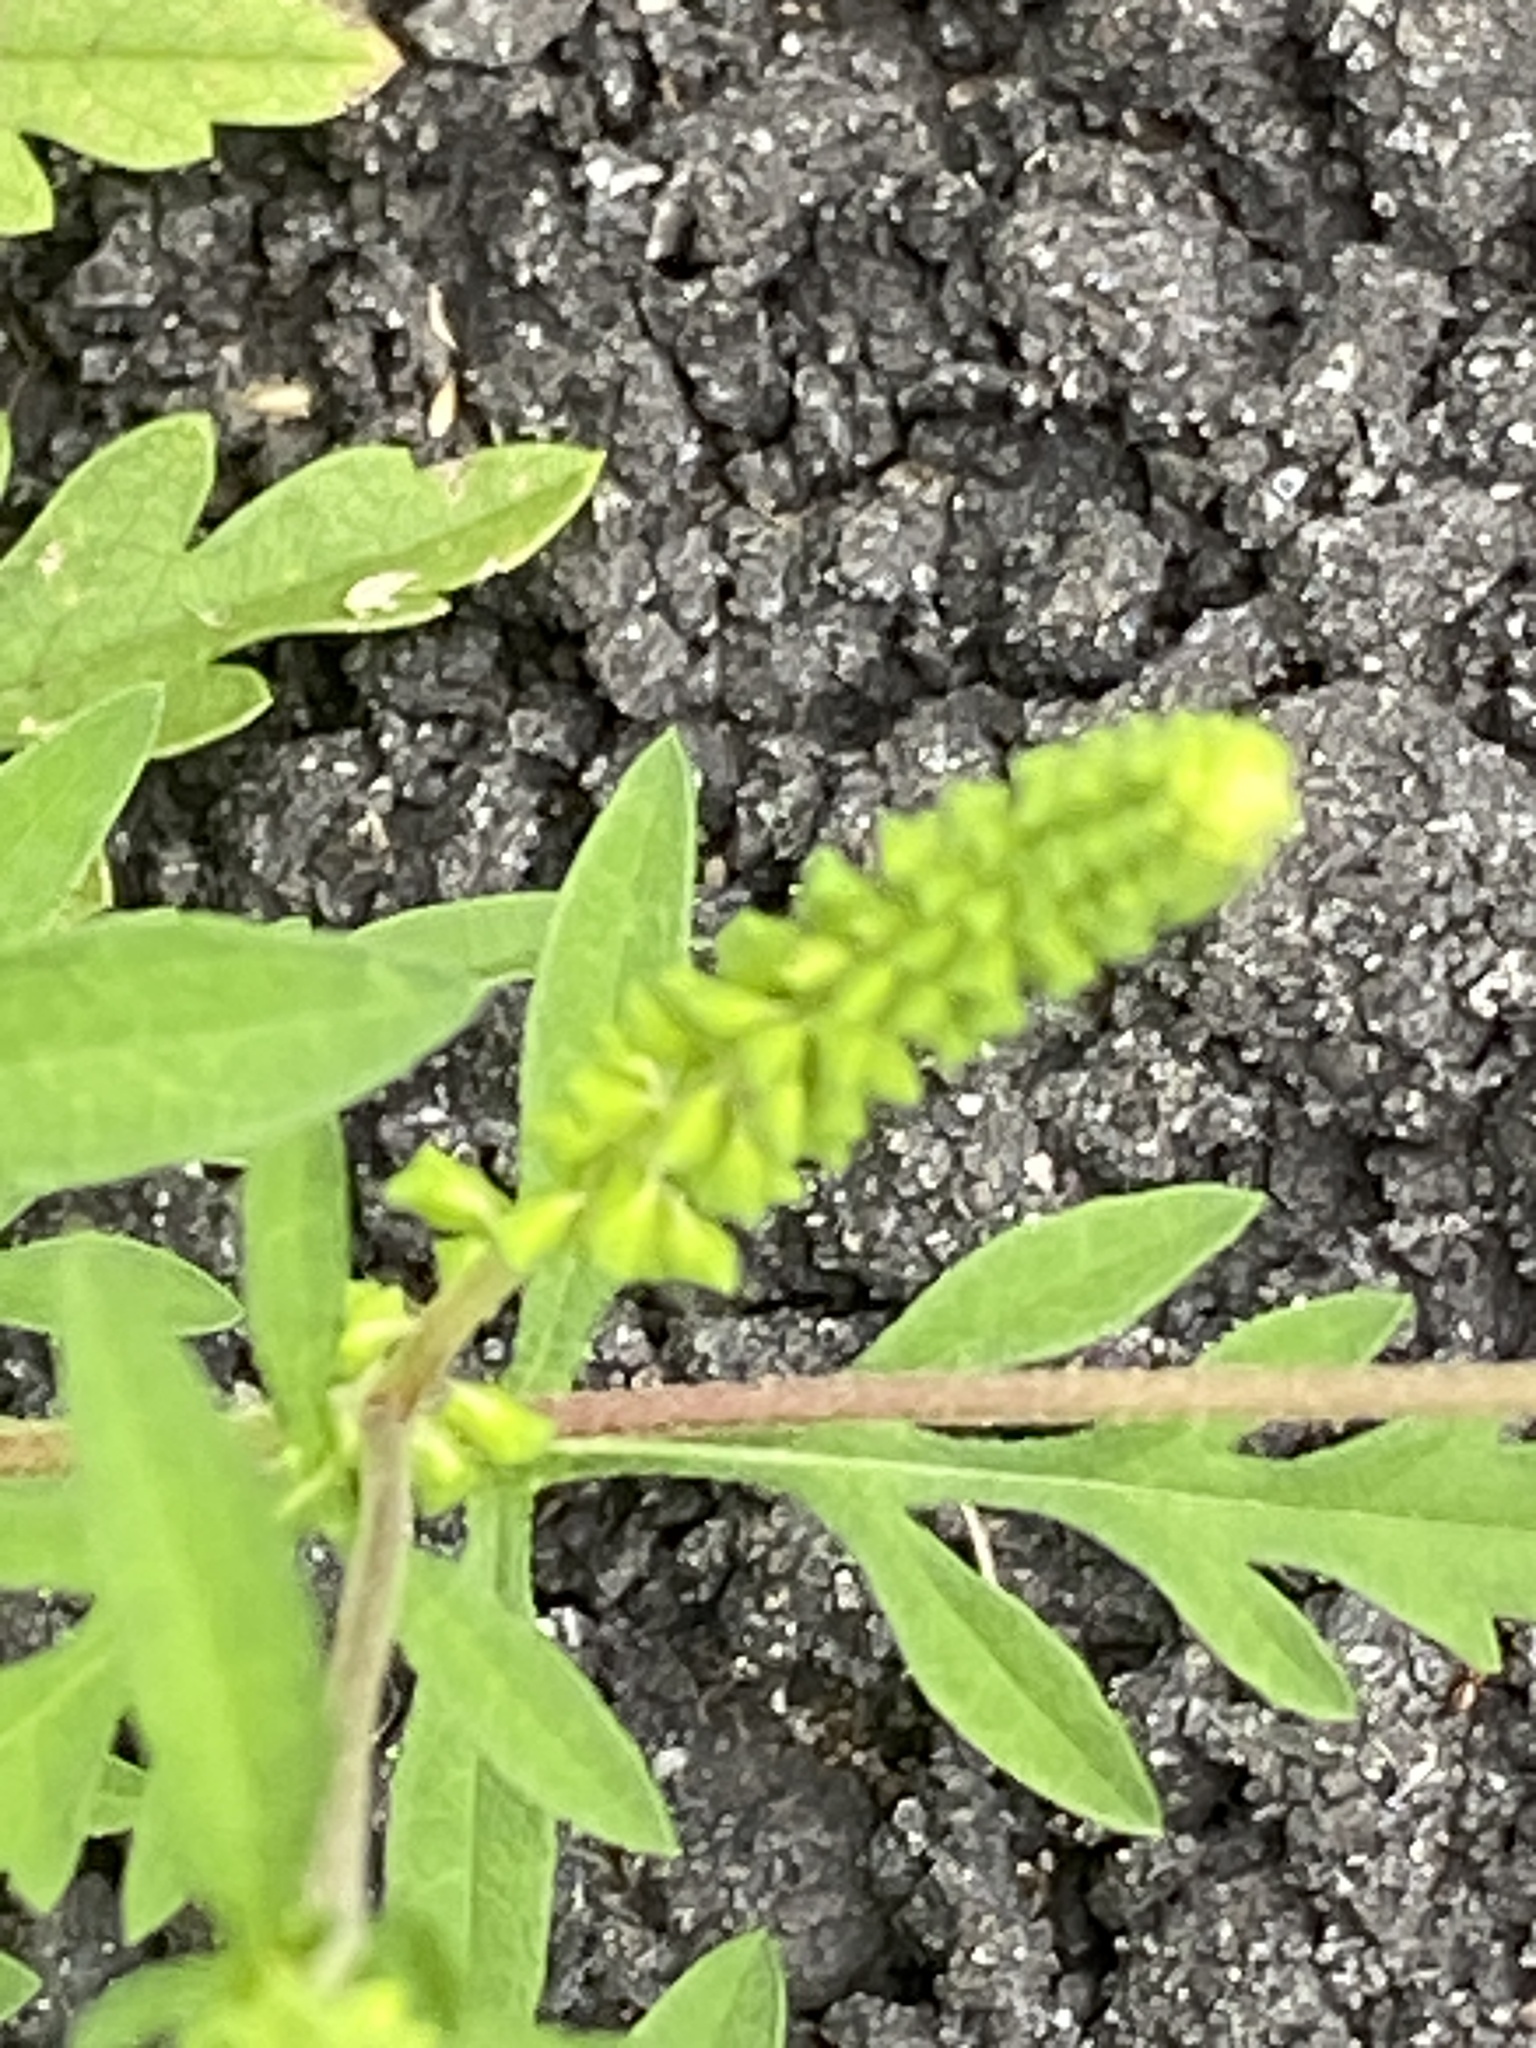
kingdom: Plantae
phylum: Tracheophyta
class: Magnoliopsida
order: Asterales
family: Asteraceae
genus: Ambrosia
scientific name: Ambrosia artemisiifolia
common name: Annual ragweed
